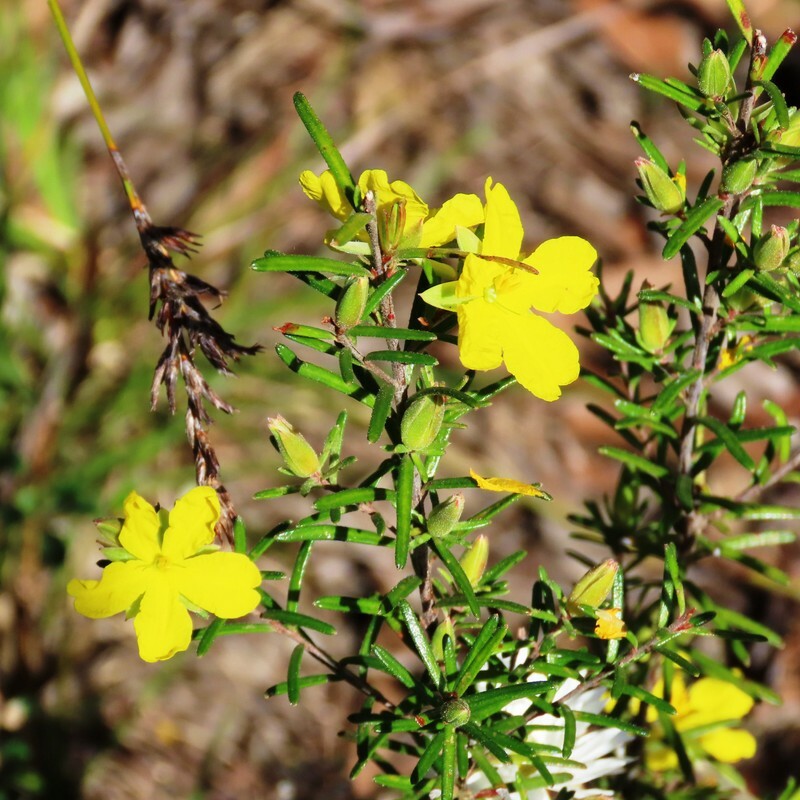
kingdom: Plantae
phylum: Tracheophyta
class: Magnoliopsida
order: Dilleniales
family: Dilleniaceae
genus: Hibbertia
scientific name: Hibbertia riparia
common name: Erect guinea-flower
